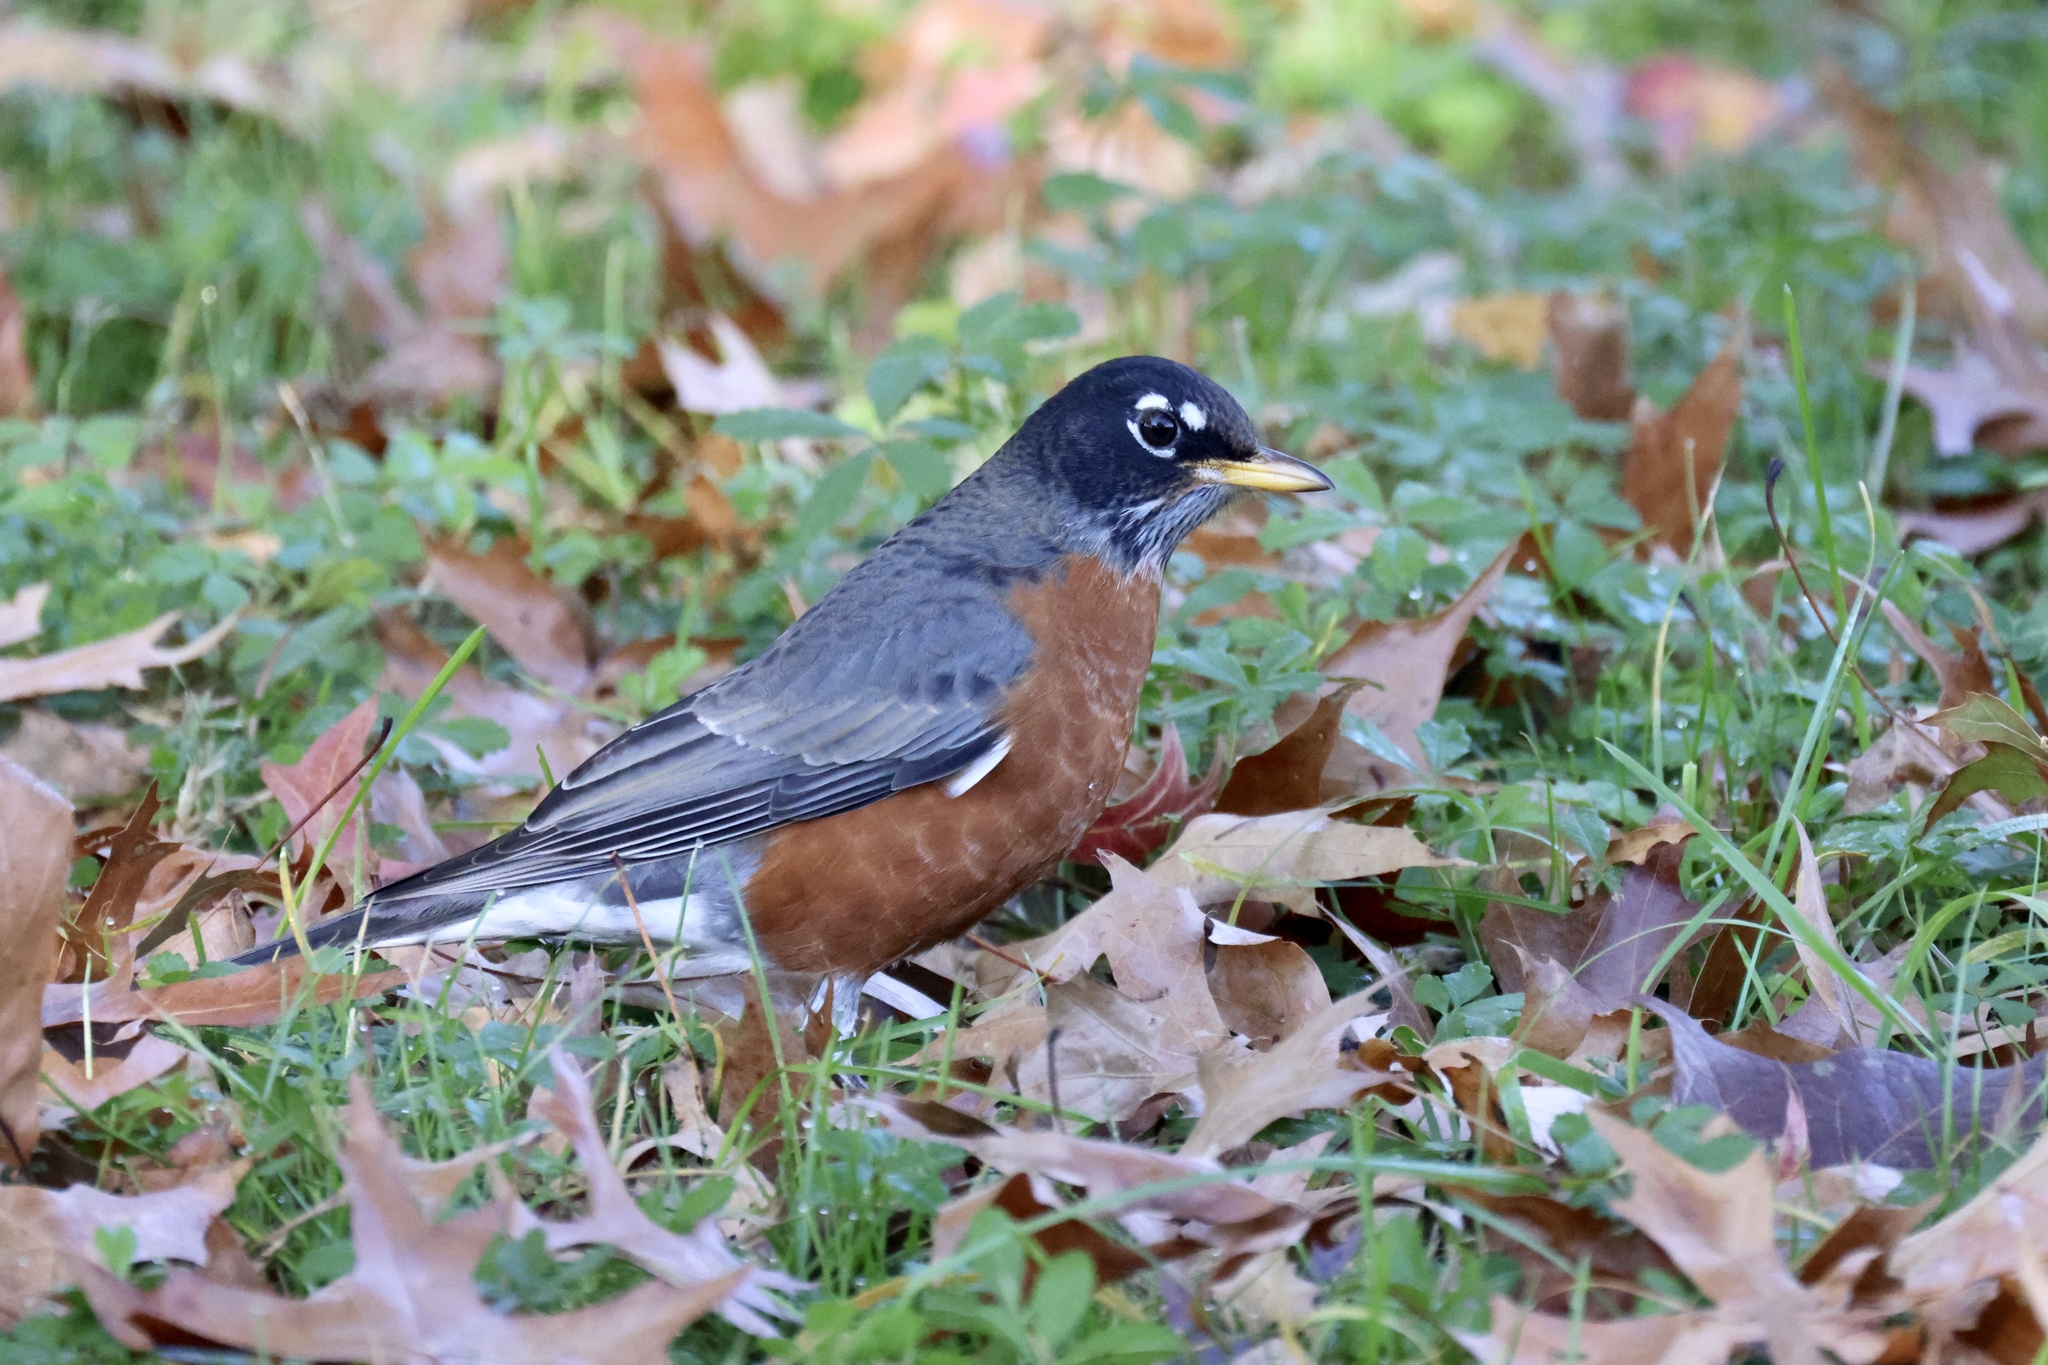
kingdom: Animalia
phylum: Chordata
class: Aves
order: Passeriformes
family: Turdidae
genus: Turdus
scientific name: Turdus migratorius
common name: American robin
